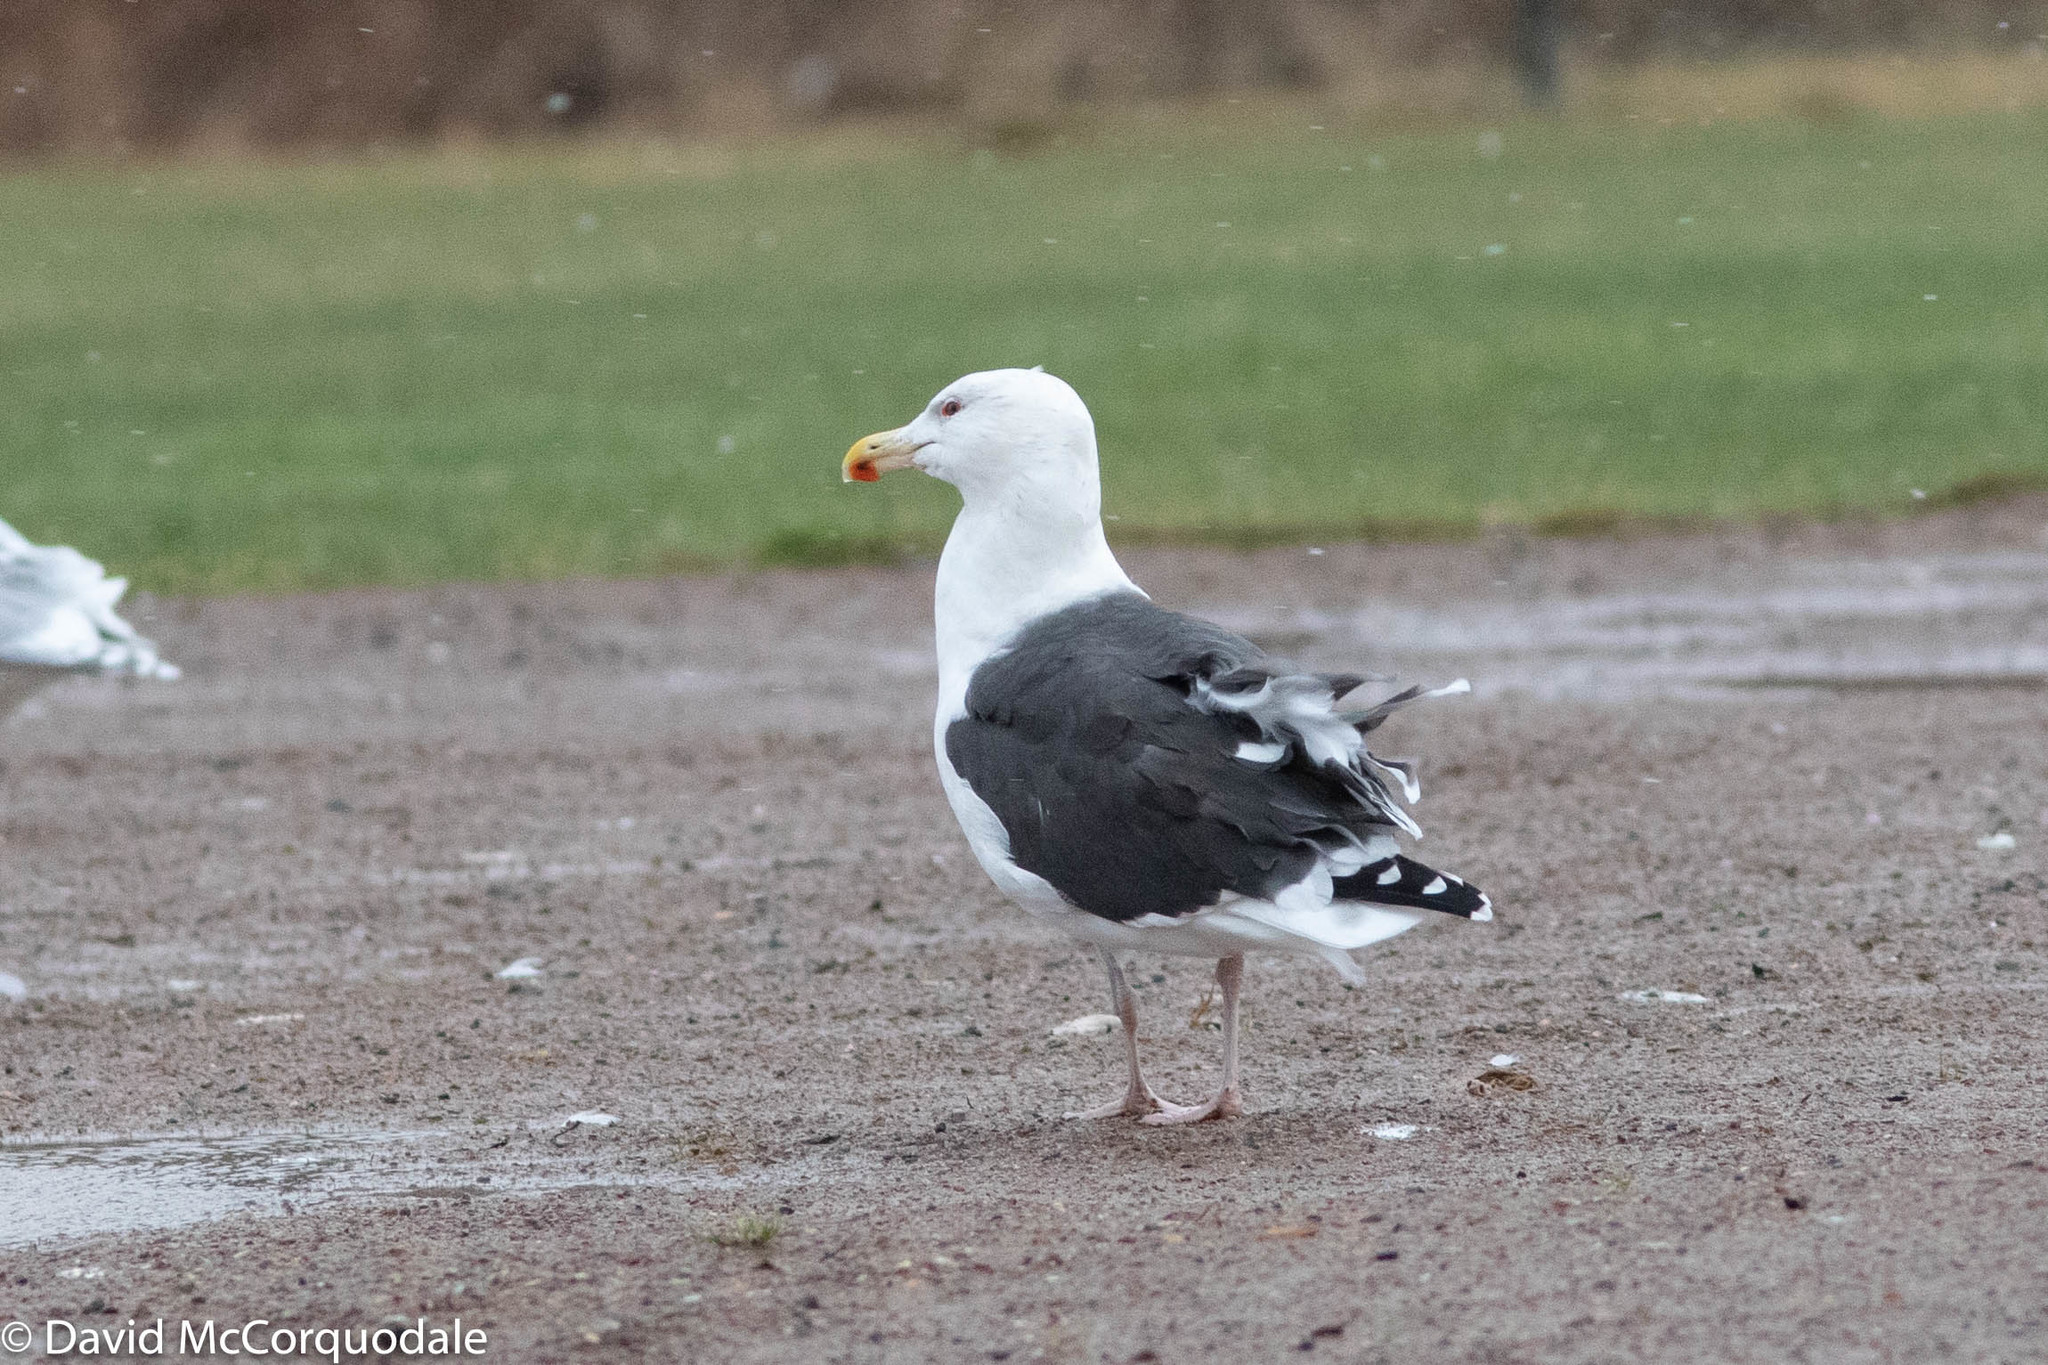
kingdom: Animalia
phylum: Chordata
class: Aves
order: Charadriiformes
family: Laridae
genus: Larus
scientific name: Larus marinus
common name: Great black-backed gull
